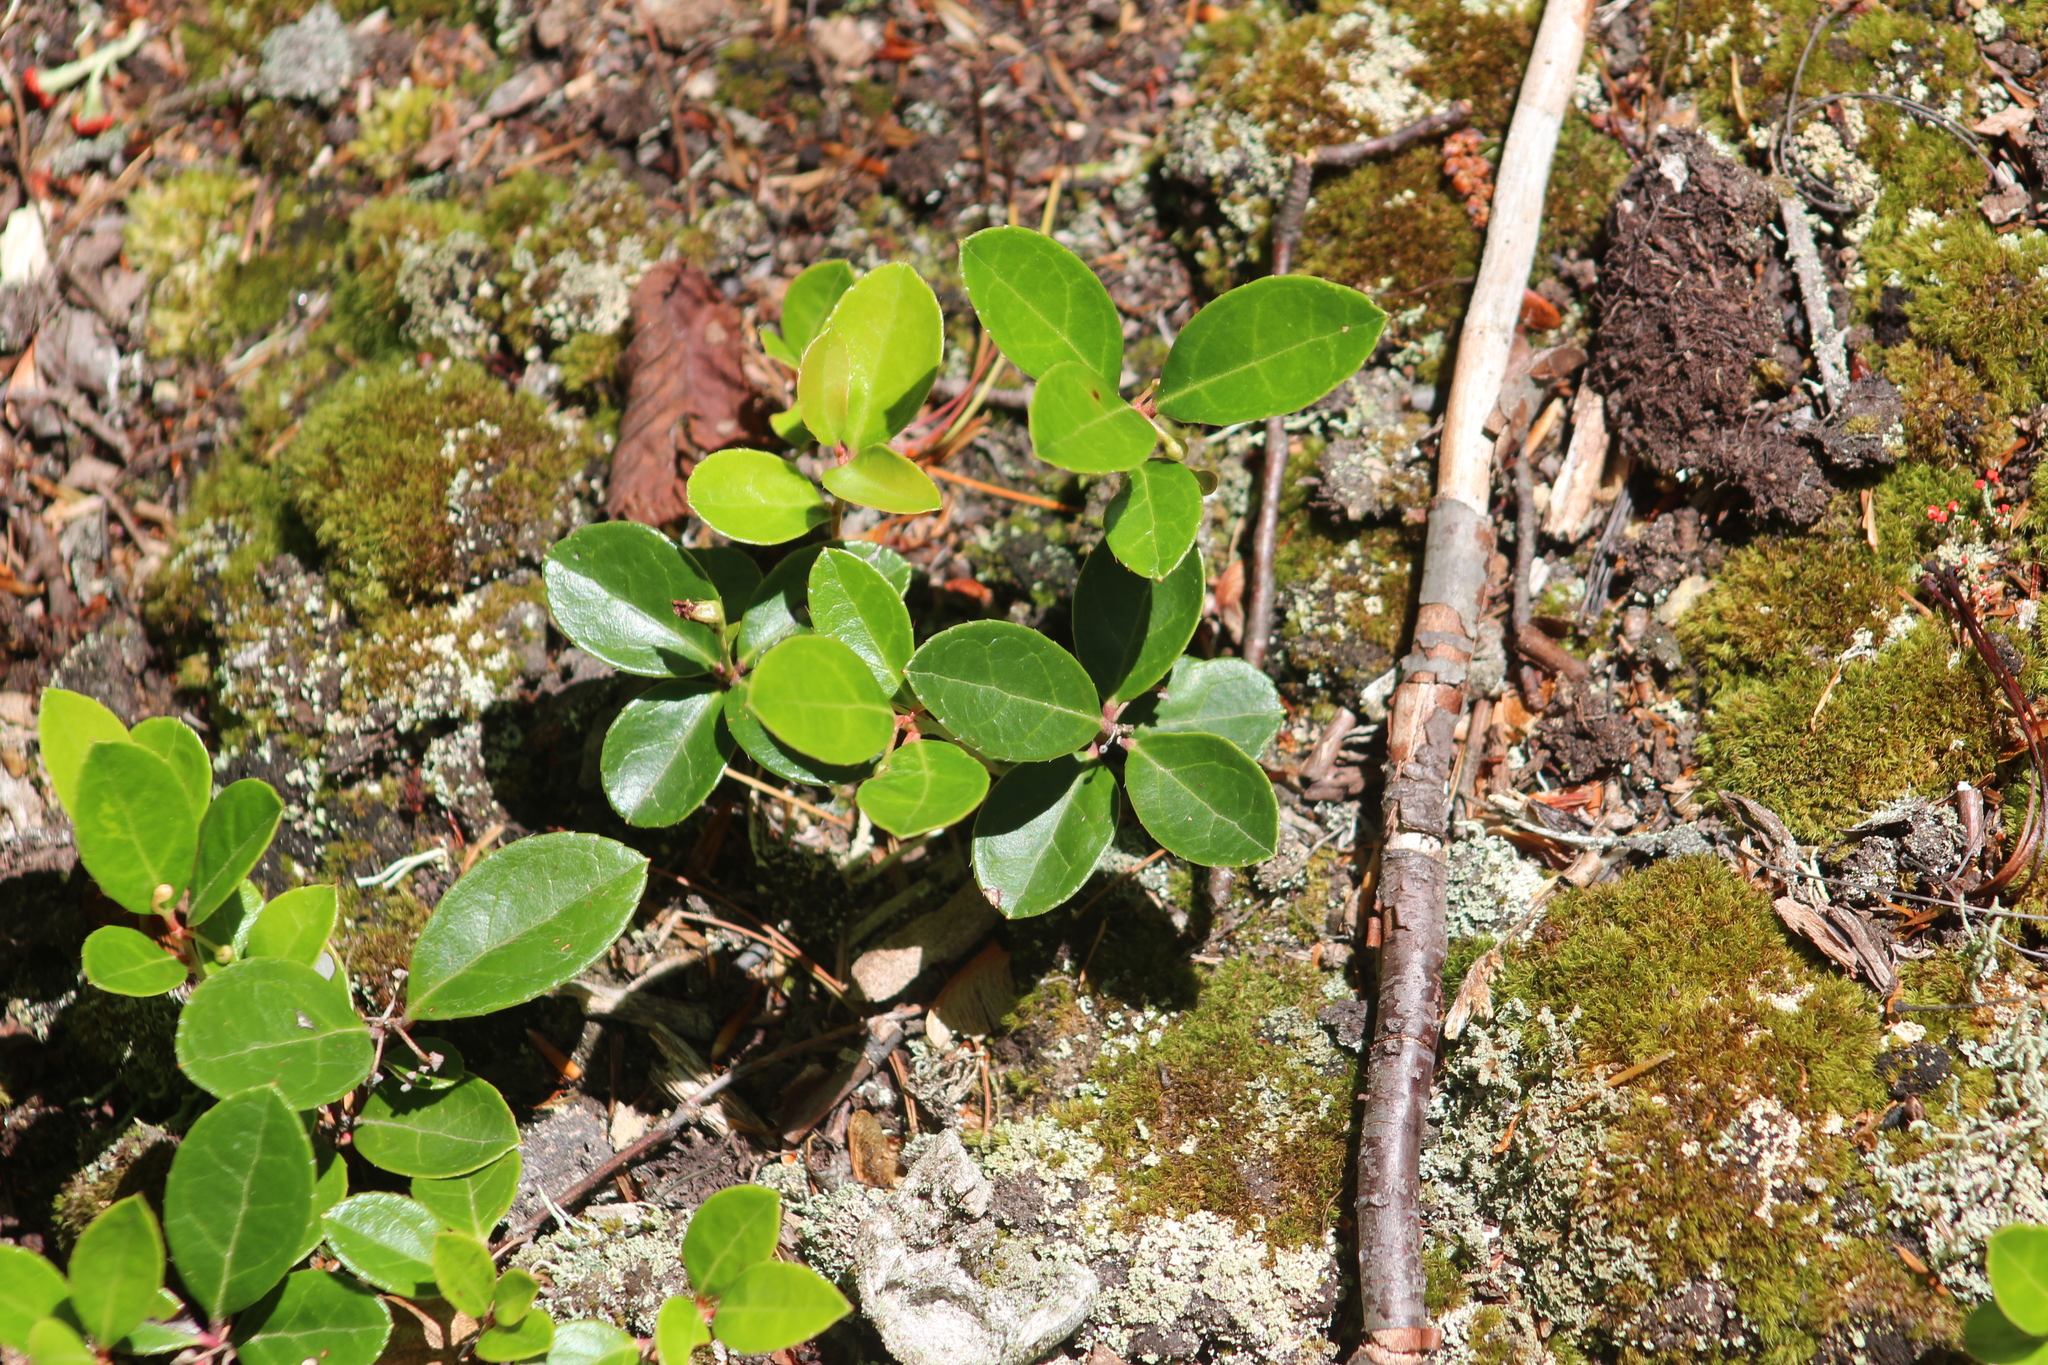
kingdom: Plantae
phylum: Tracheophyta
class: Magnoliopsida
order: Ericales
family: Ericaceae
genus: Gaultheria
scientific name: Gaultheria procumbens
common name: Checkerberry
